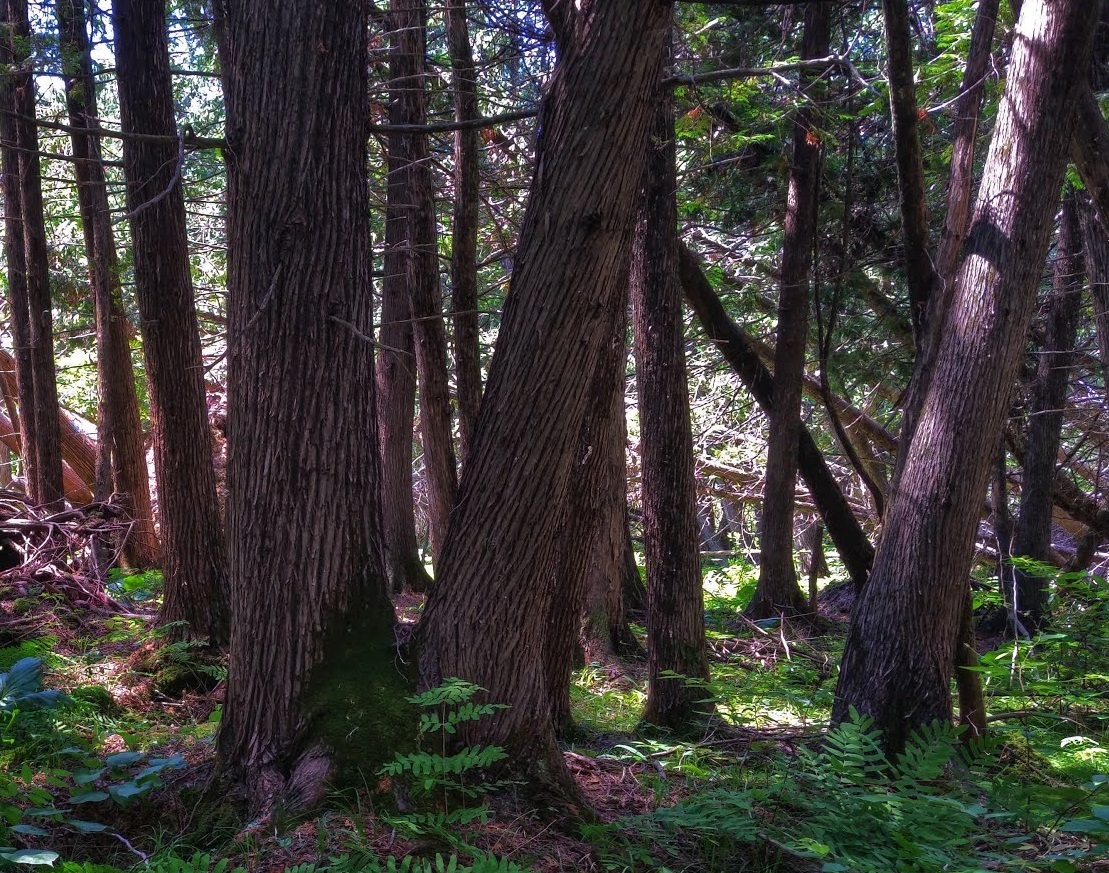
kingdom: Plantae
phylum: Tracheophyta
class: Pinopsida
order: Pinales
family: Cupressaceae
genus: Thuja
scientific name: Thuja occidentalis
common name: Northern white-cedar
